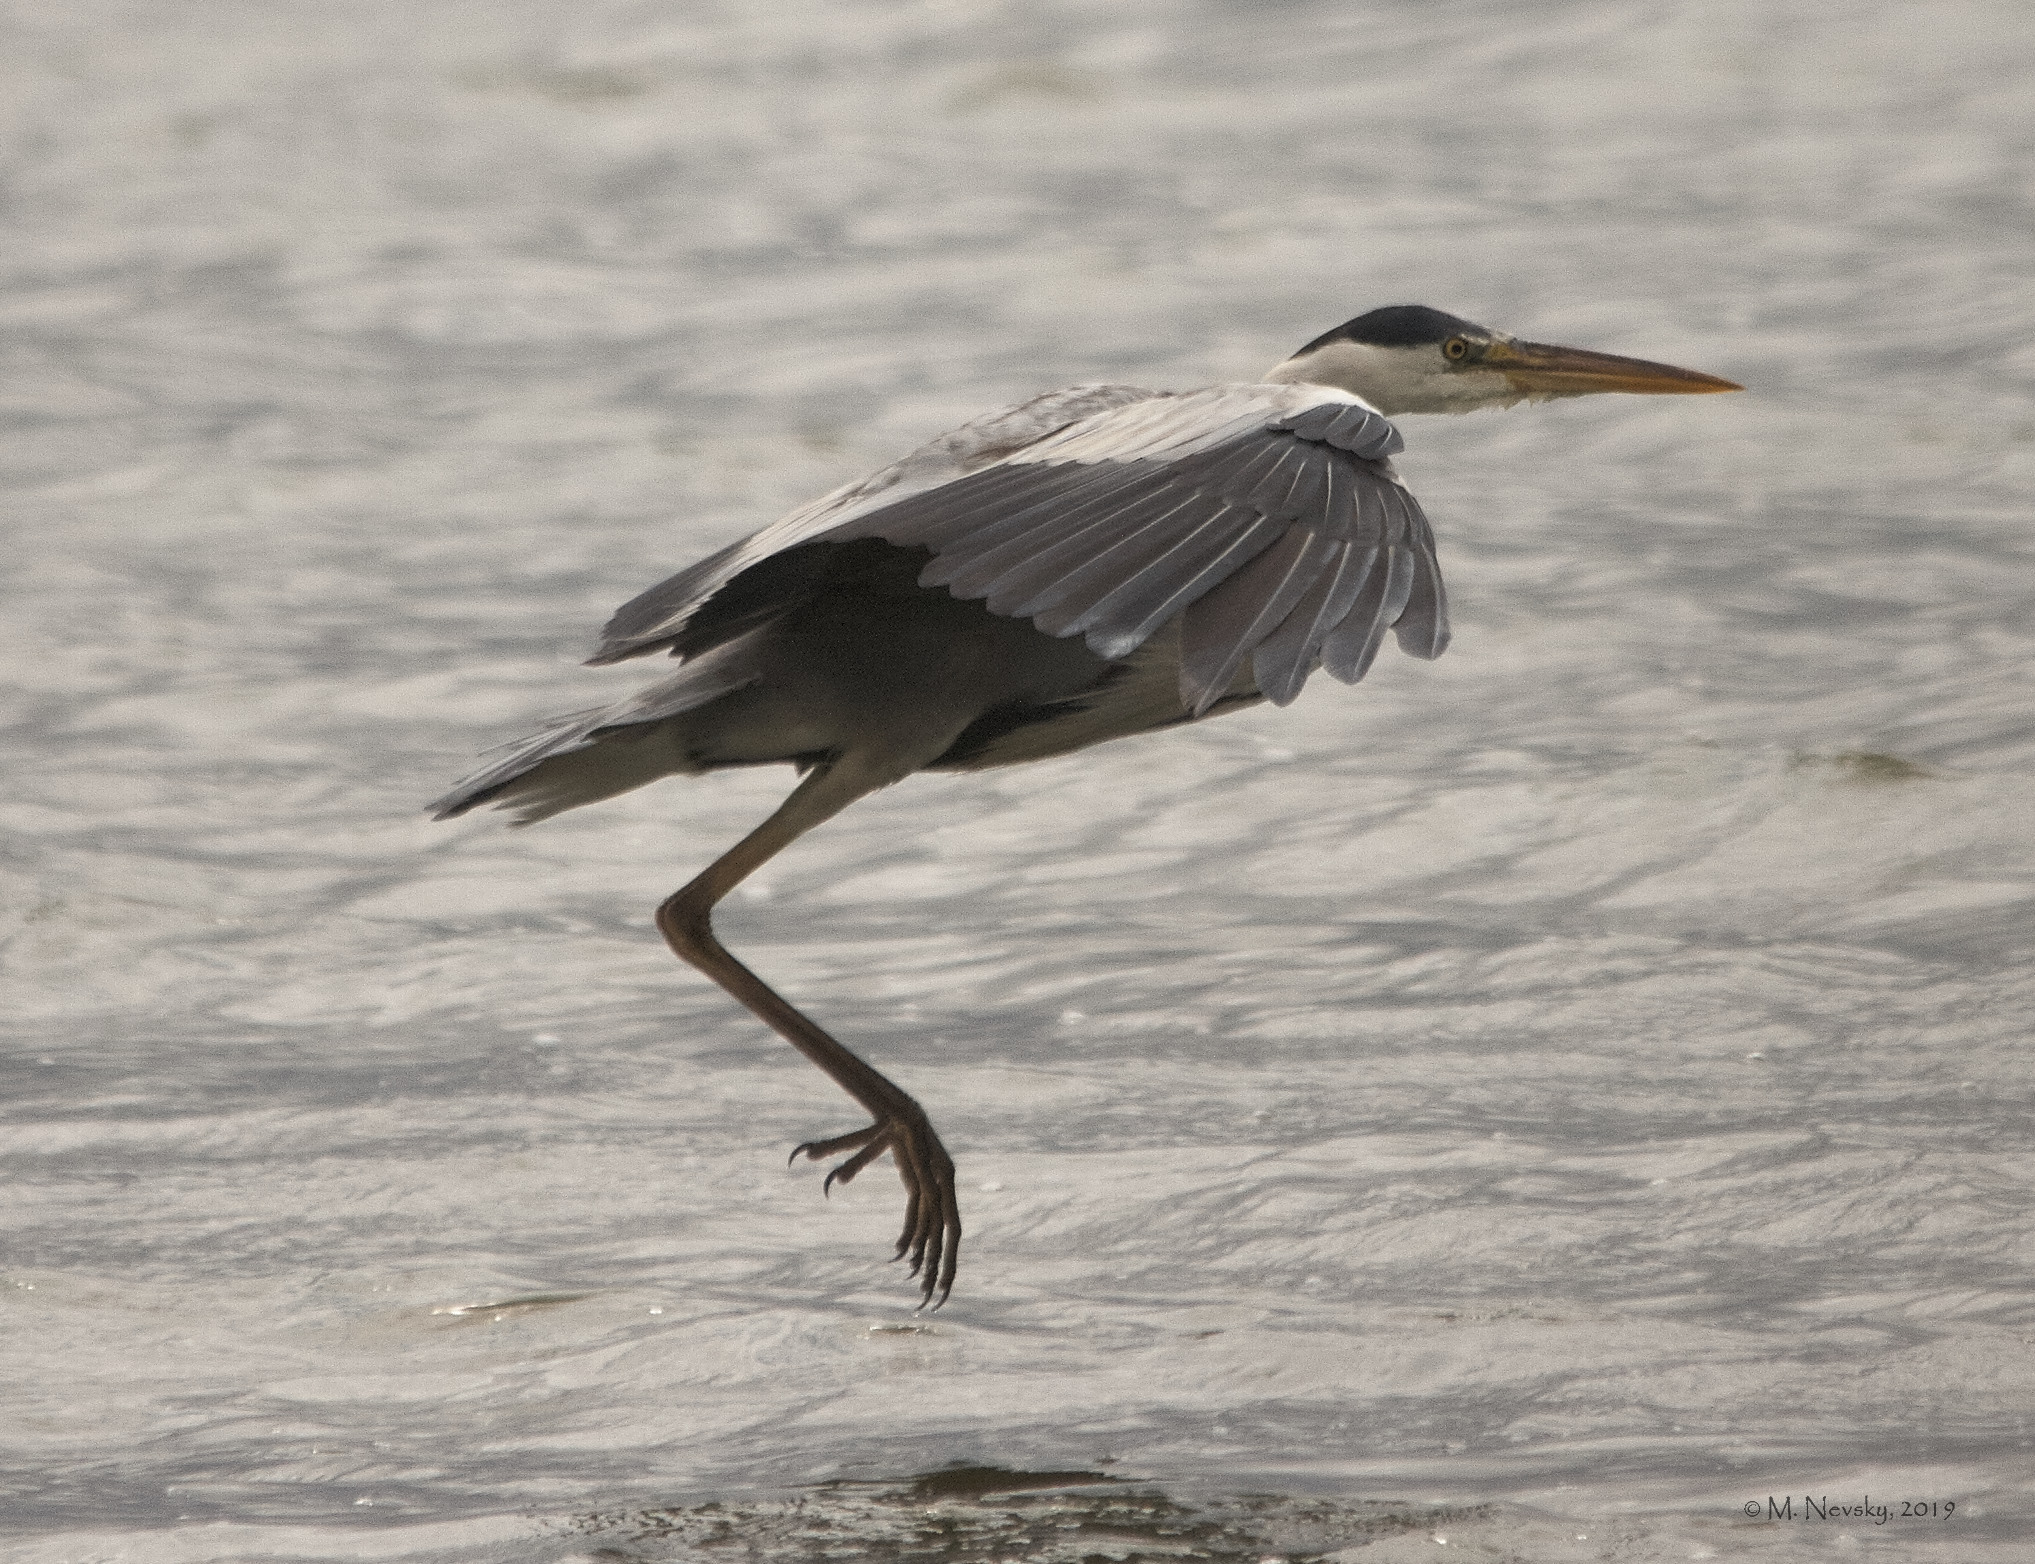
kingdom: Animalia
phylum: Chordata
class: Aves
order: Pelecaniformes
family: Ardeidae
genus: Ardea
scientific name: Ardea cinerea
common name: Grey heron
